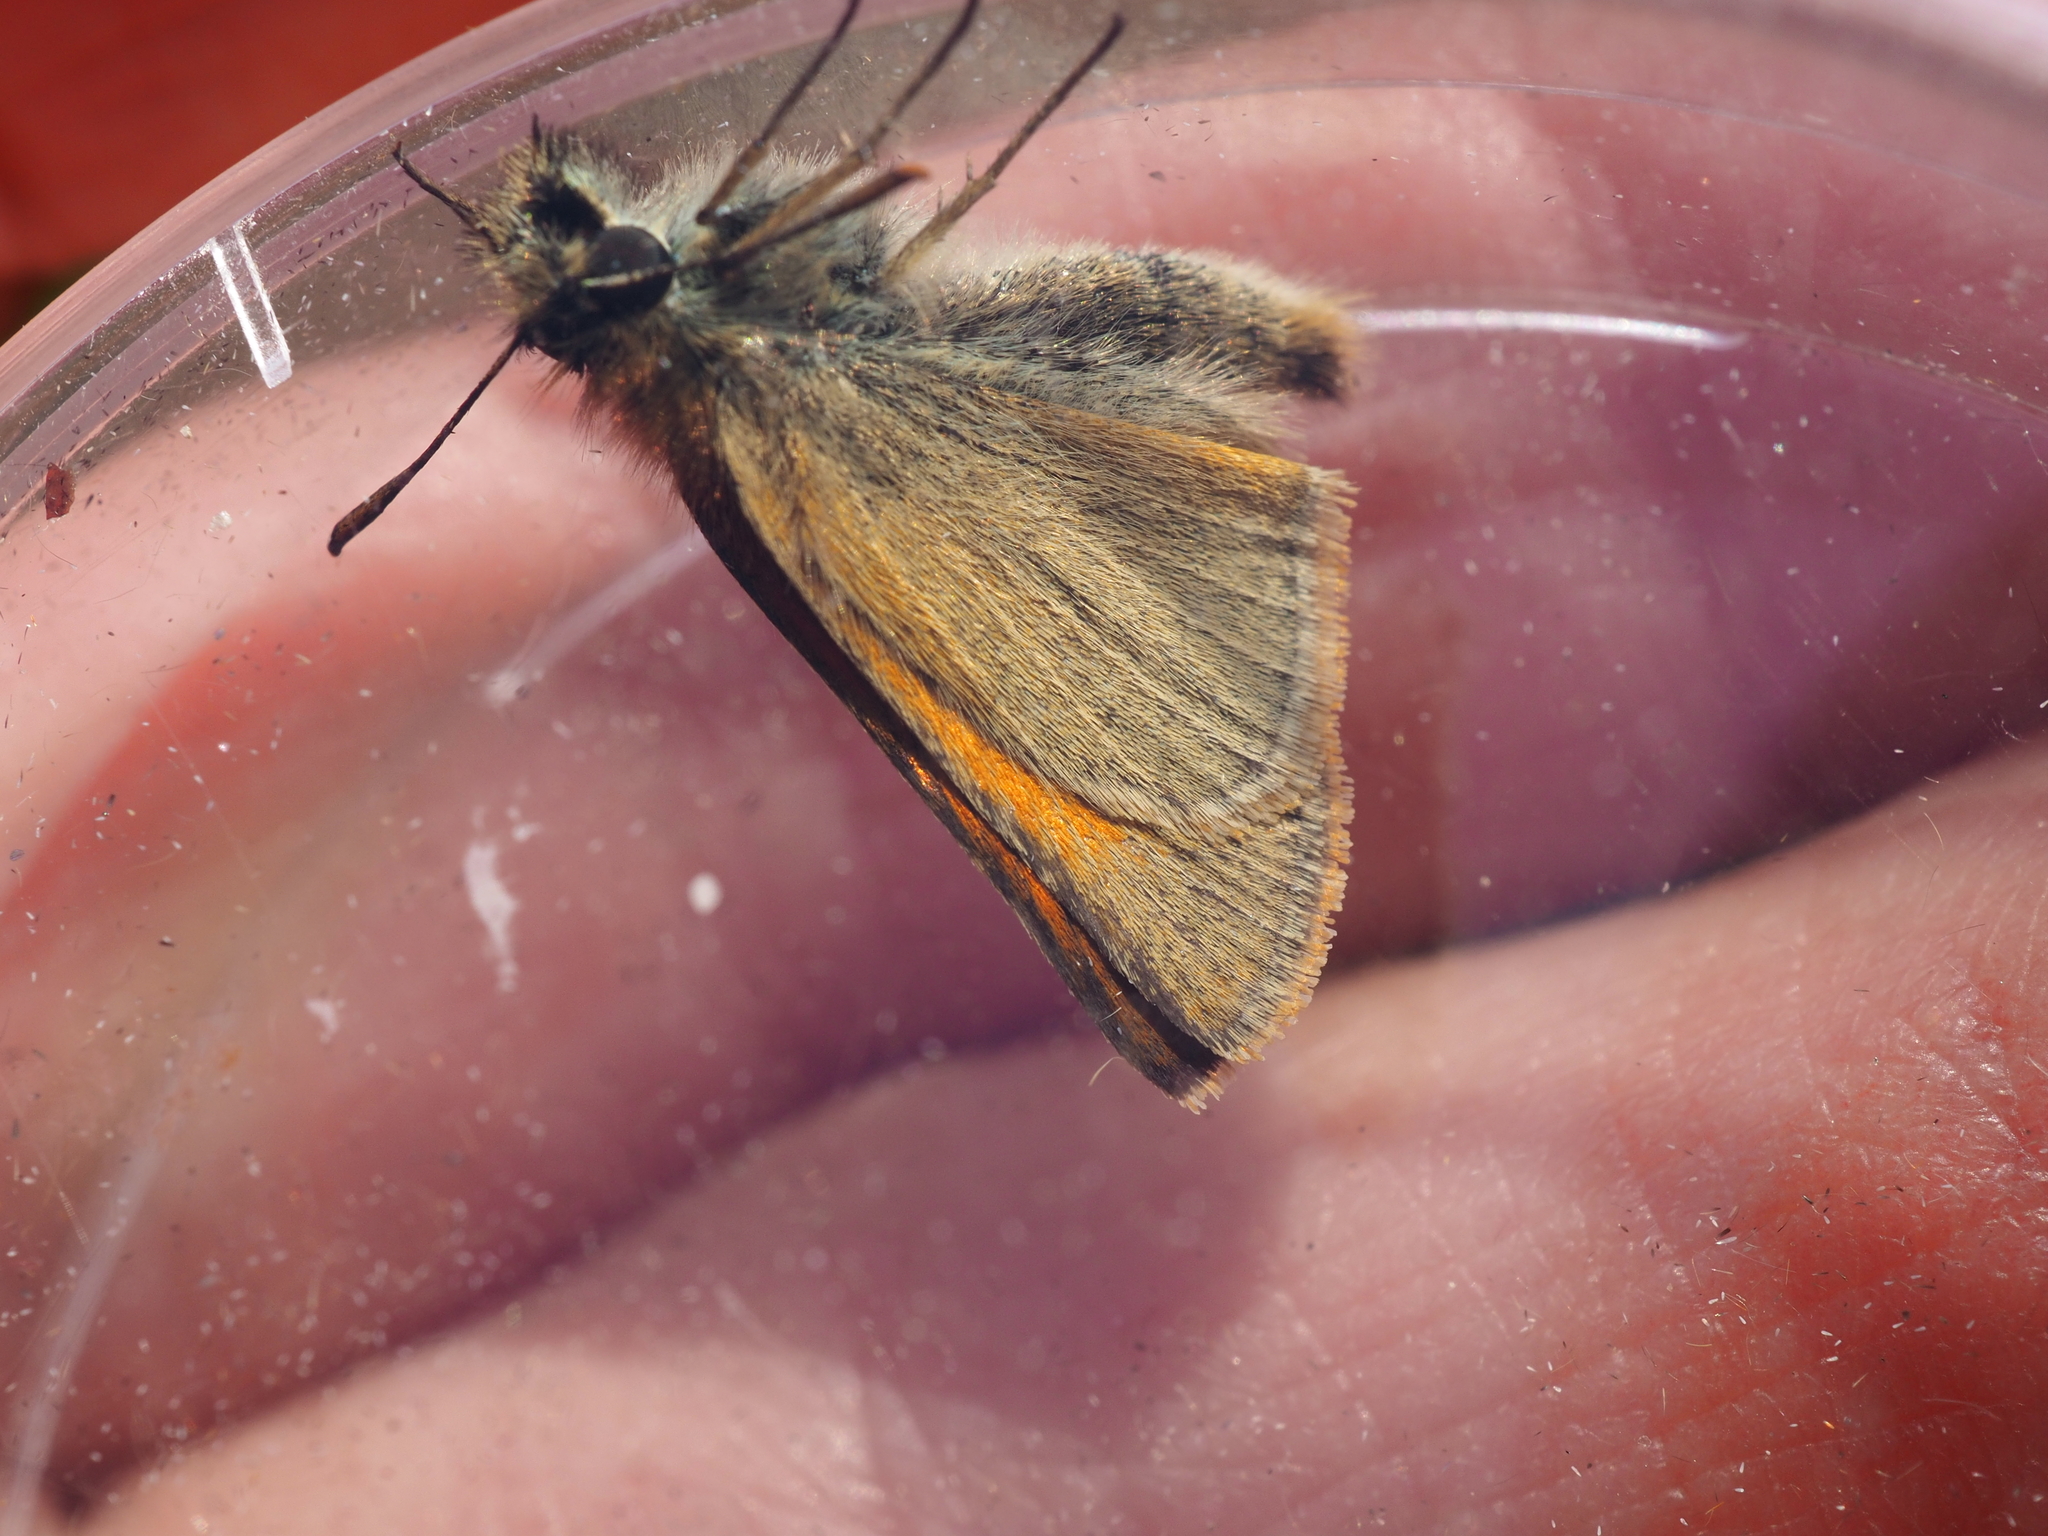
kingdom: Animalia
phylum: Arthropoda
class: Insecta
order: Lepidoptera
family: Hesperiidae
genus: Thymelicus
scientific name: Thymelicus sylvestris
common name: Small skipper
